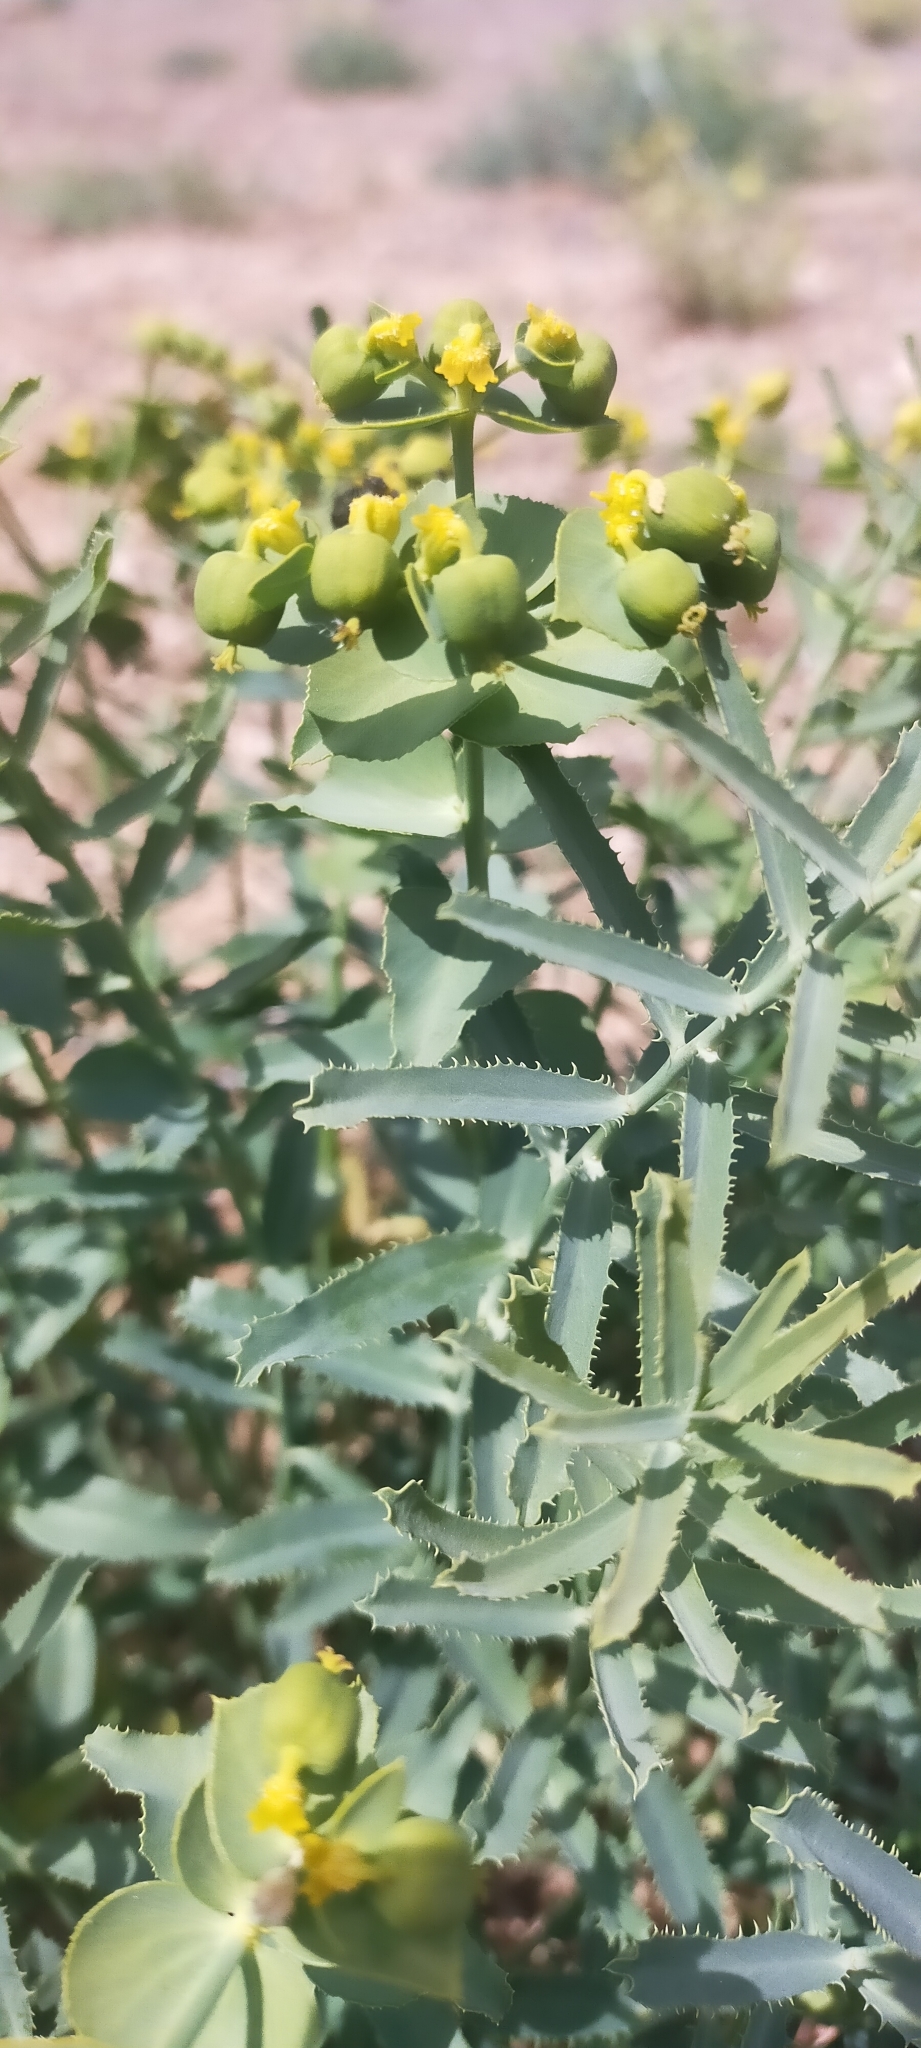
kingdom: Plantae
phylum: Tracheophyta
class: Magnoliopsida
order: Malpighiales
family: Euphorbiaceae
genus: Euphorbia
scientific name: Euphorbia serrata
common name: Serrate spurge
